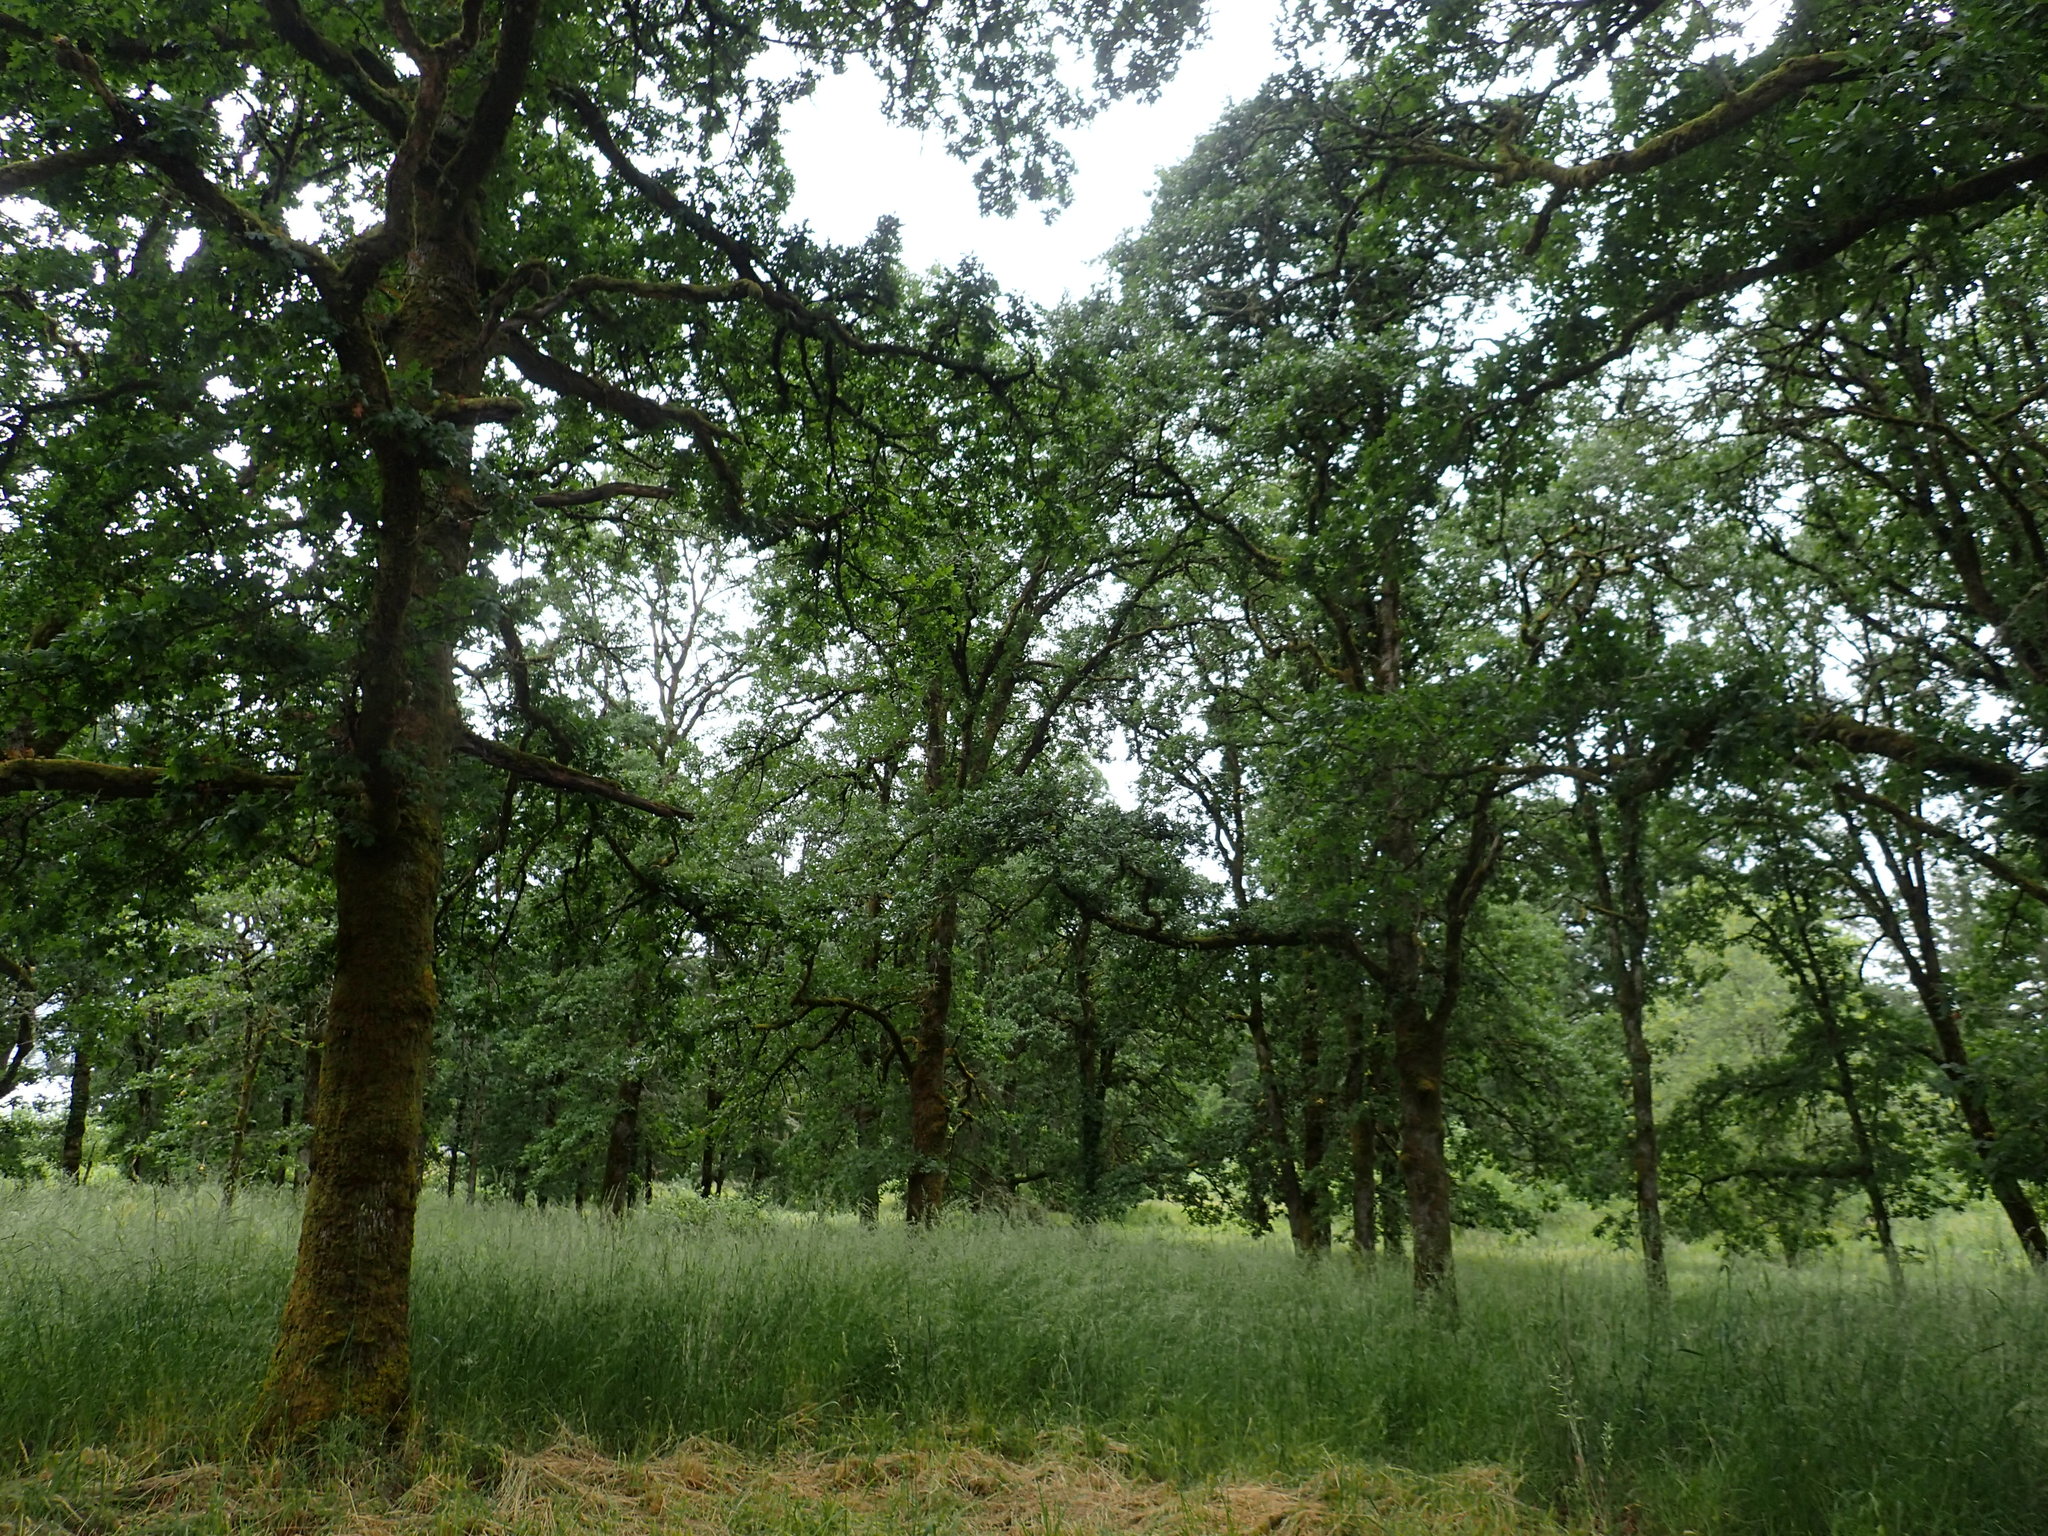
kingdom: Plantae
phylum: Tracheophyta
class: Magnoliopsida
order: Fagales
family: Fagaceae
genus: Quercus
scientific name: Quercus garryana
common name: Garry oak
